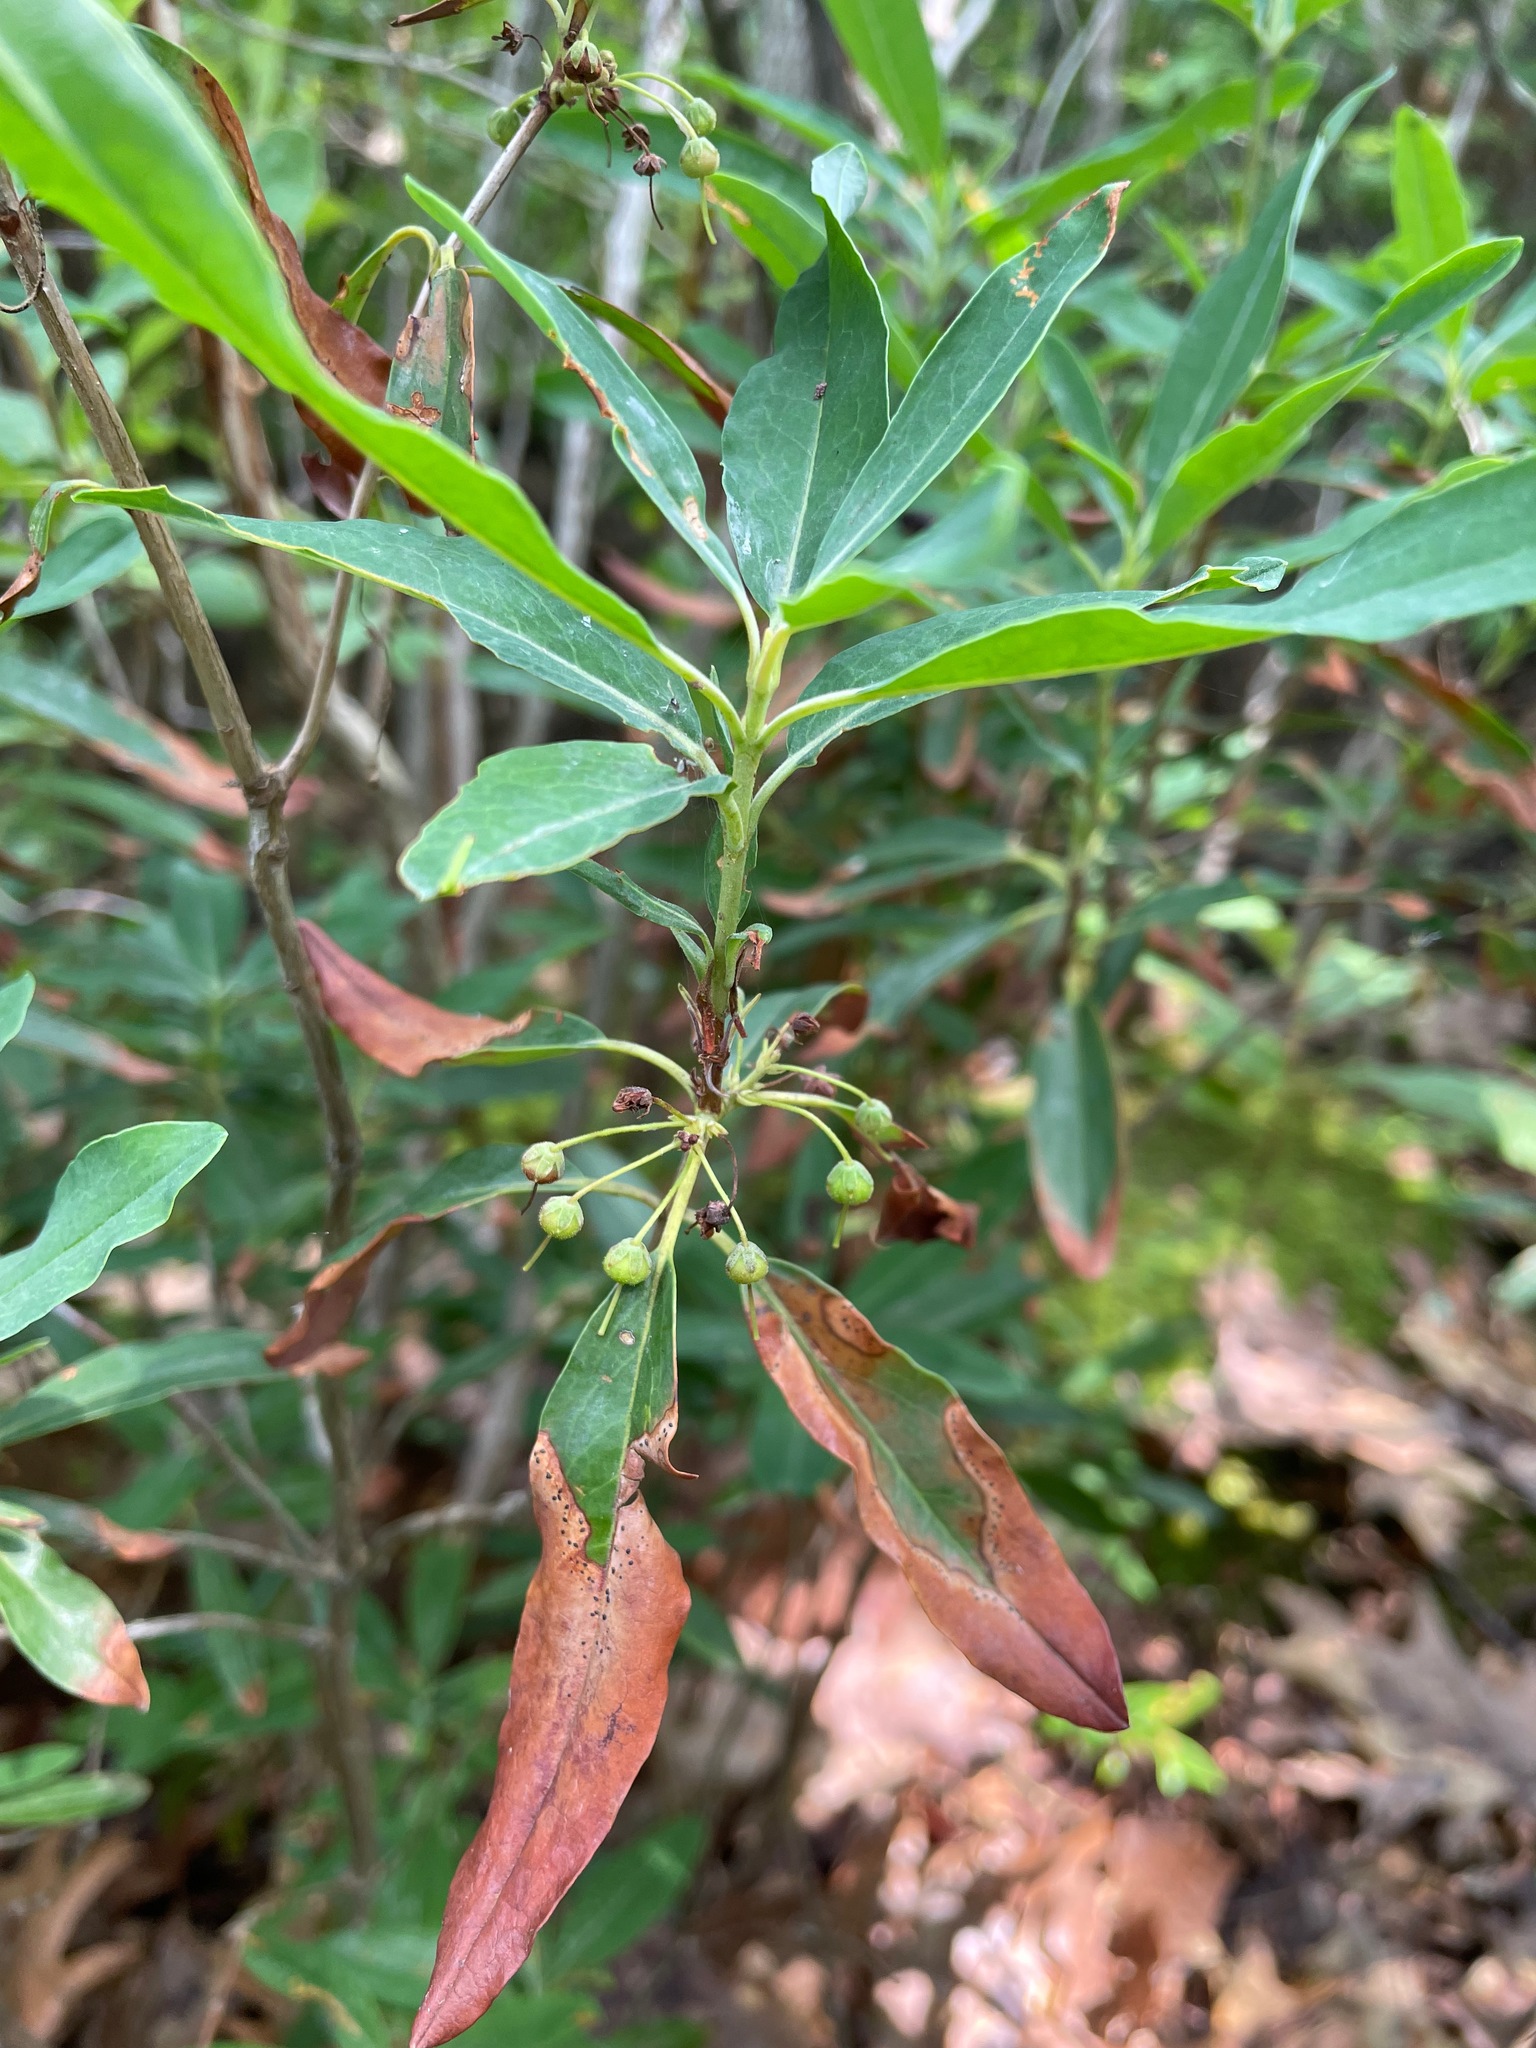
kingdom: Plantae
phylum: Tracheophyta
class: Magnoliopsida
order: Ericales
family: Ericaceae
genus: Kalmia
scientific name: Kalmia angustifolia
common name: Sheep-laurel
